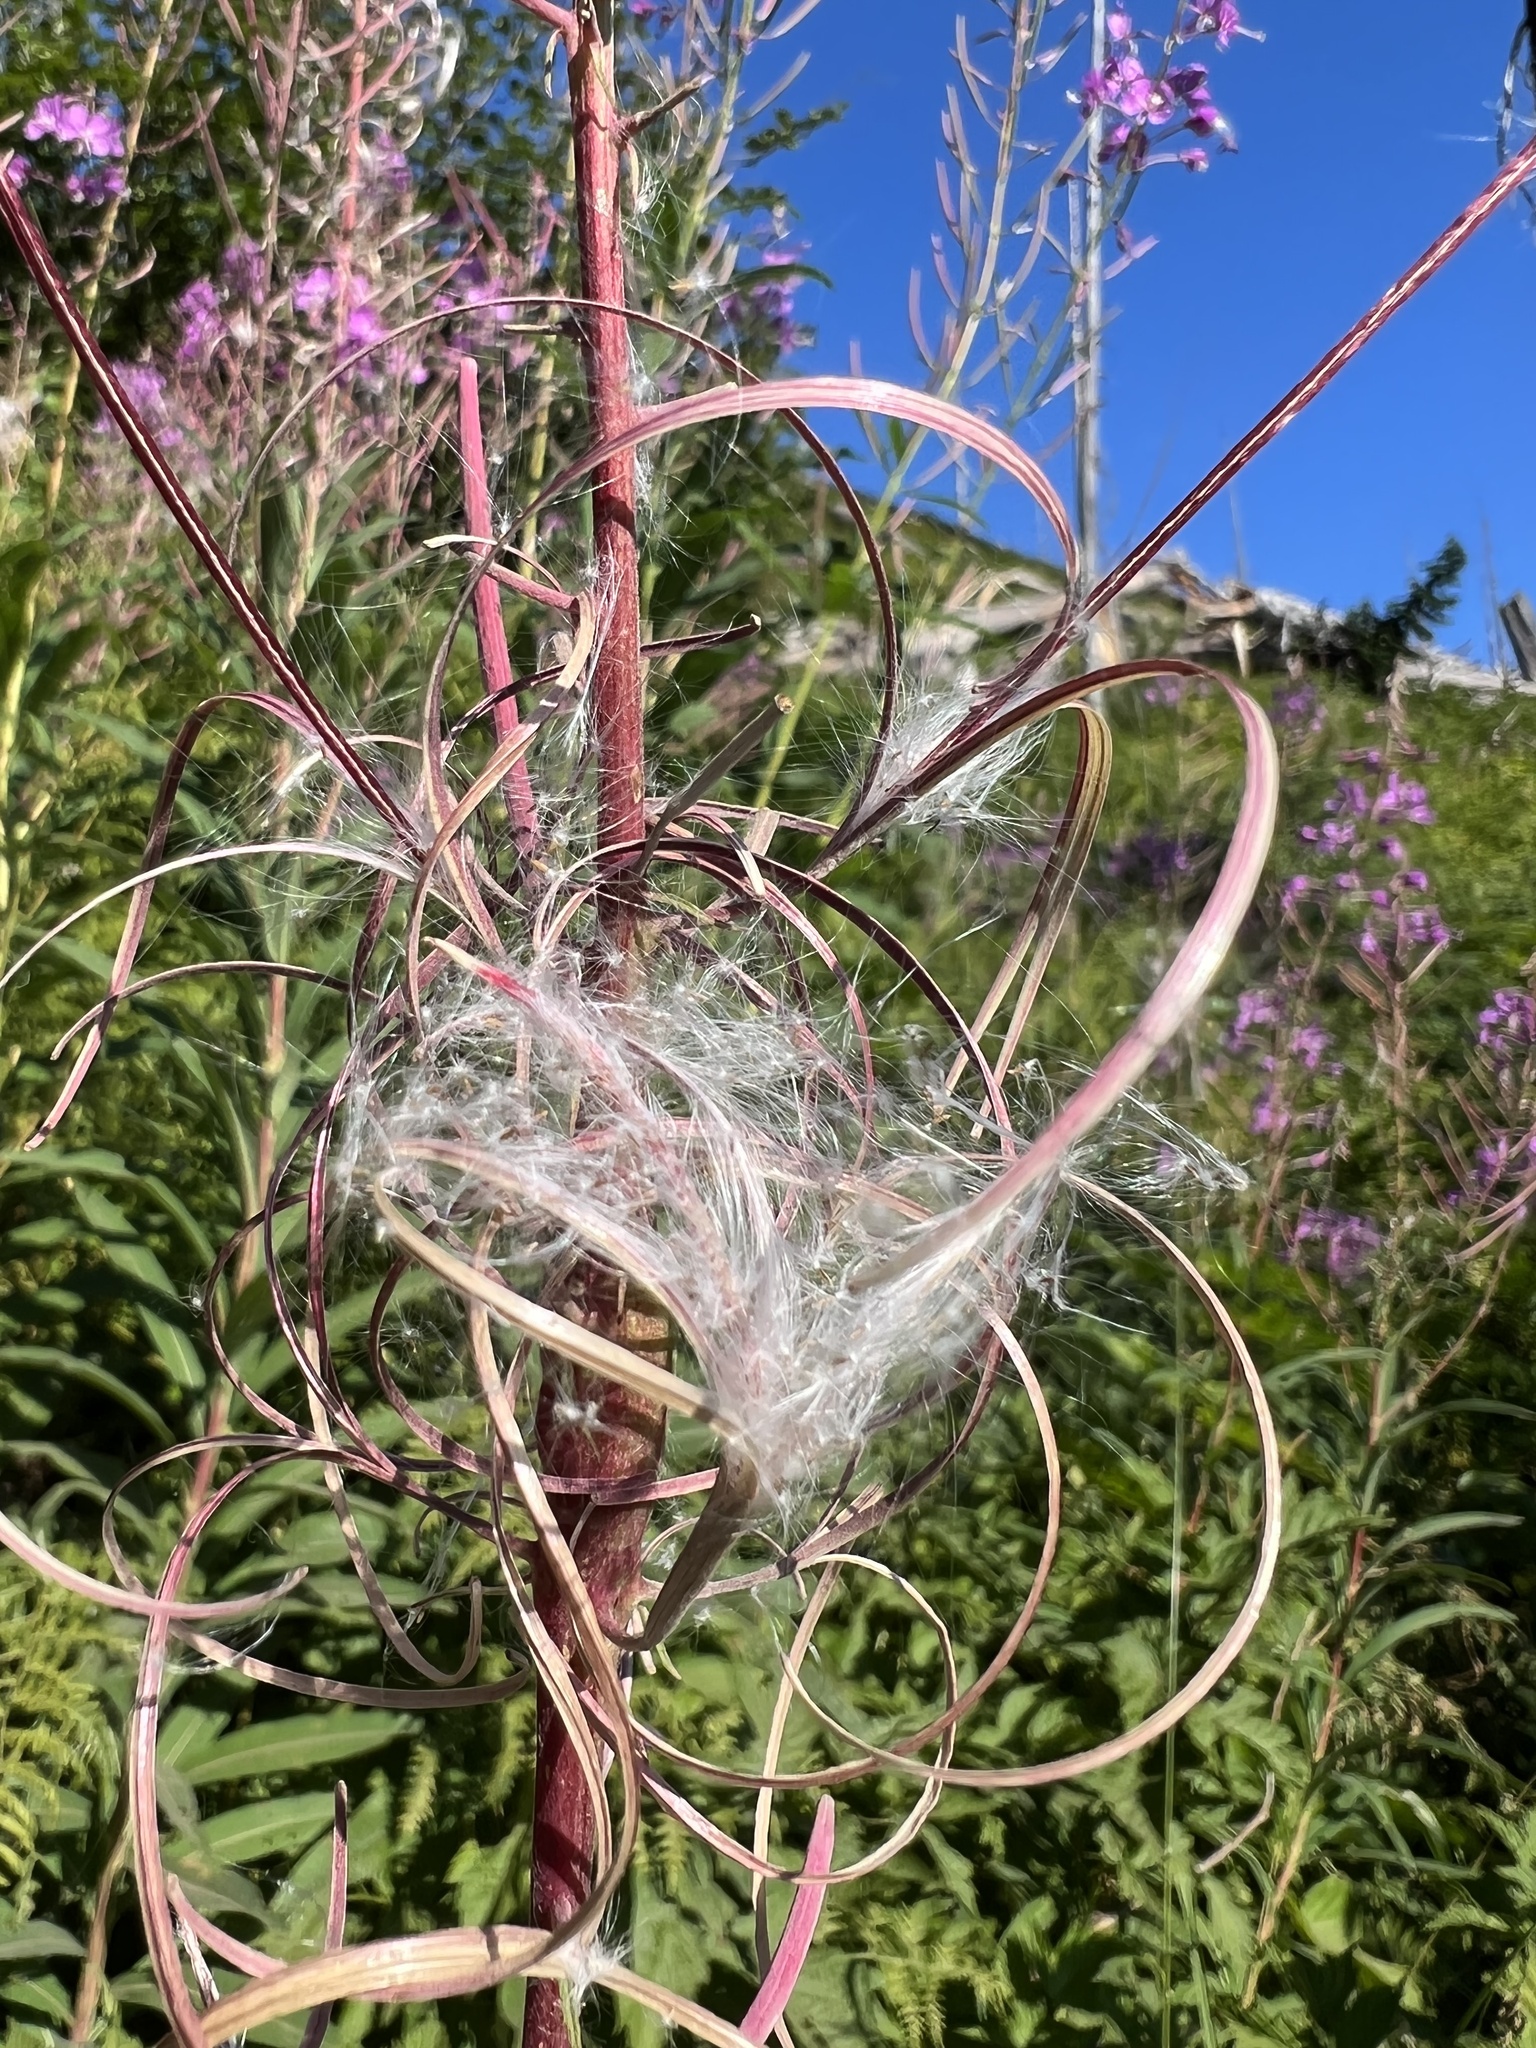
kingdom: Plantae
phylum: Tracheophyta
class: Magnoliopsida
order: Myrtales
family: Onagraceae
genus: Chamaenerion
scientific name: Chamaenerion angustifolium
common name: Fireweed
